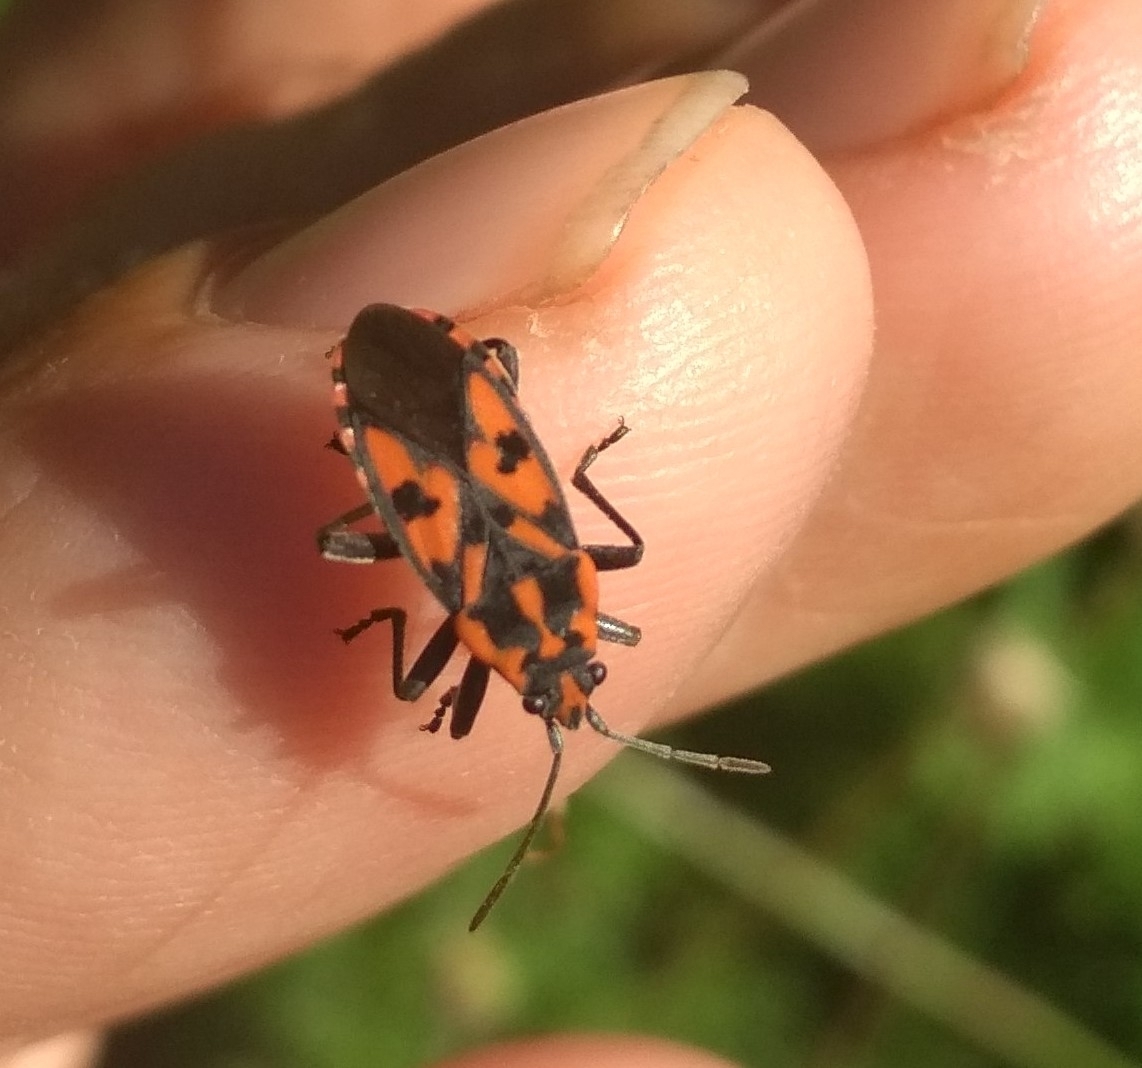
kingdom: Animalia
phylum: Arthropoda
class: Insecta
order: Hemiptera
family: Lygaeidae
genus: Spilostethus
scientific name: Spilostethus saxatilis
